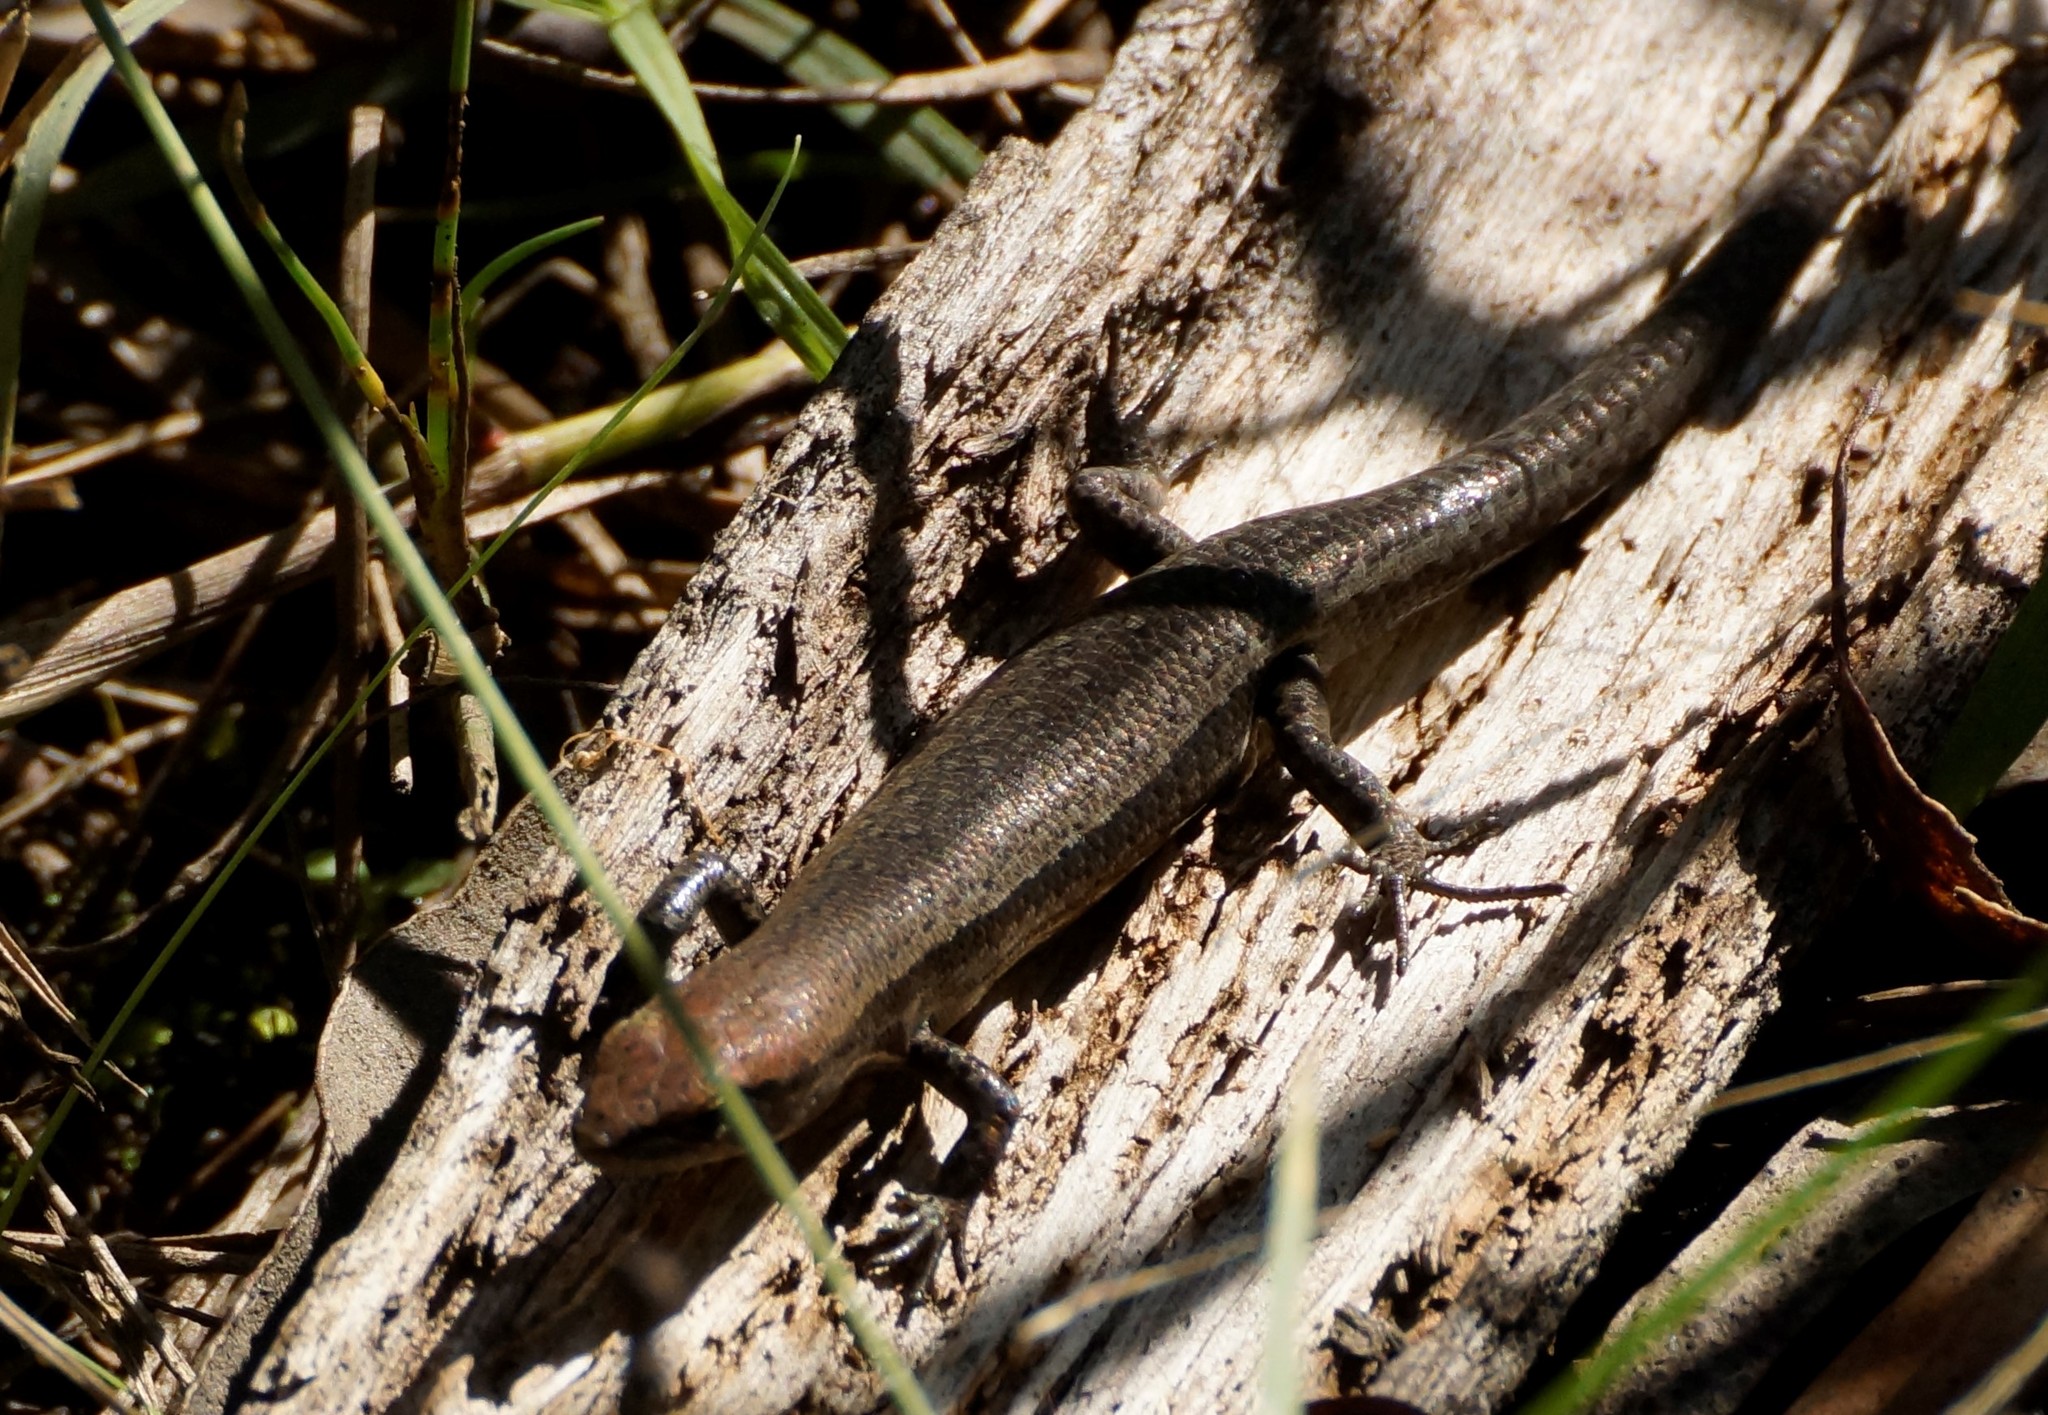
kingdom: Animalia
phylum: Chordata
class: Squamata
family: Scincidae
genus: Lampropholis
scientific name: Lampropholis guichenoti
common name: Garden skink
